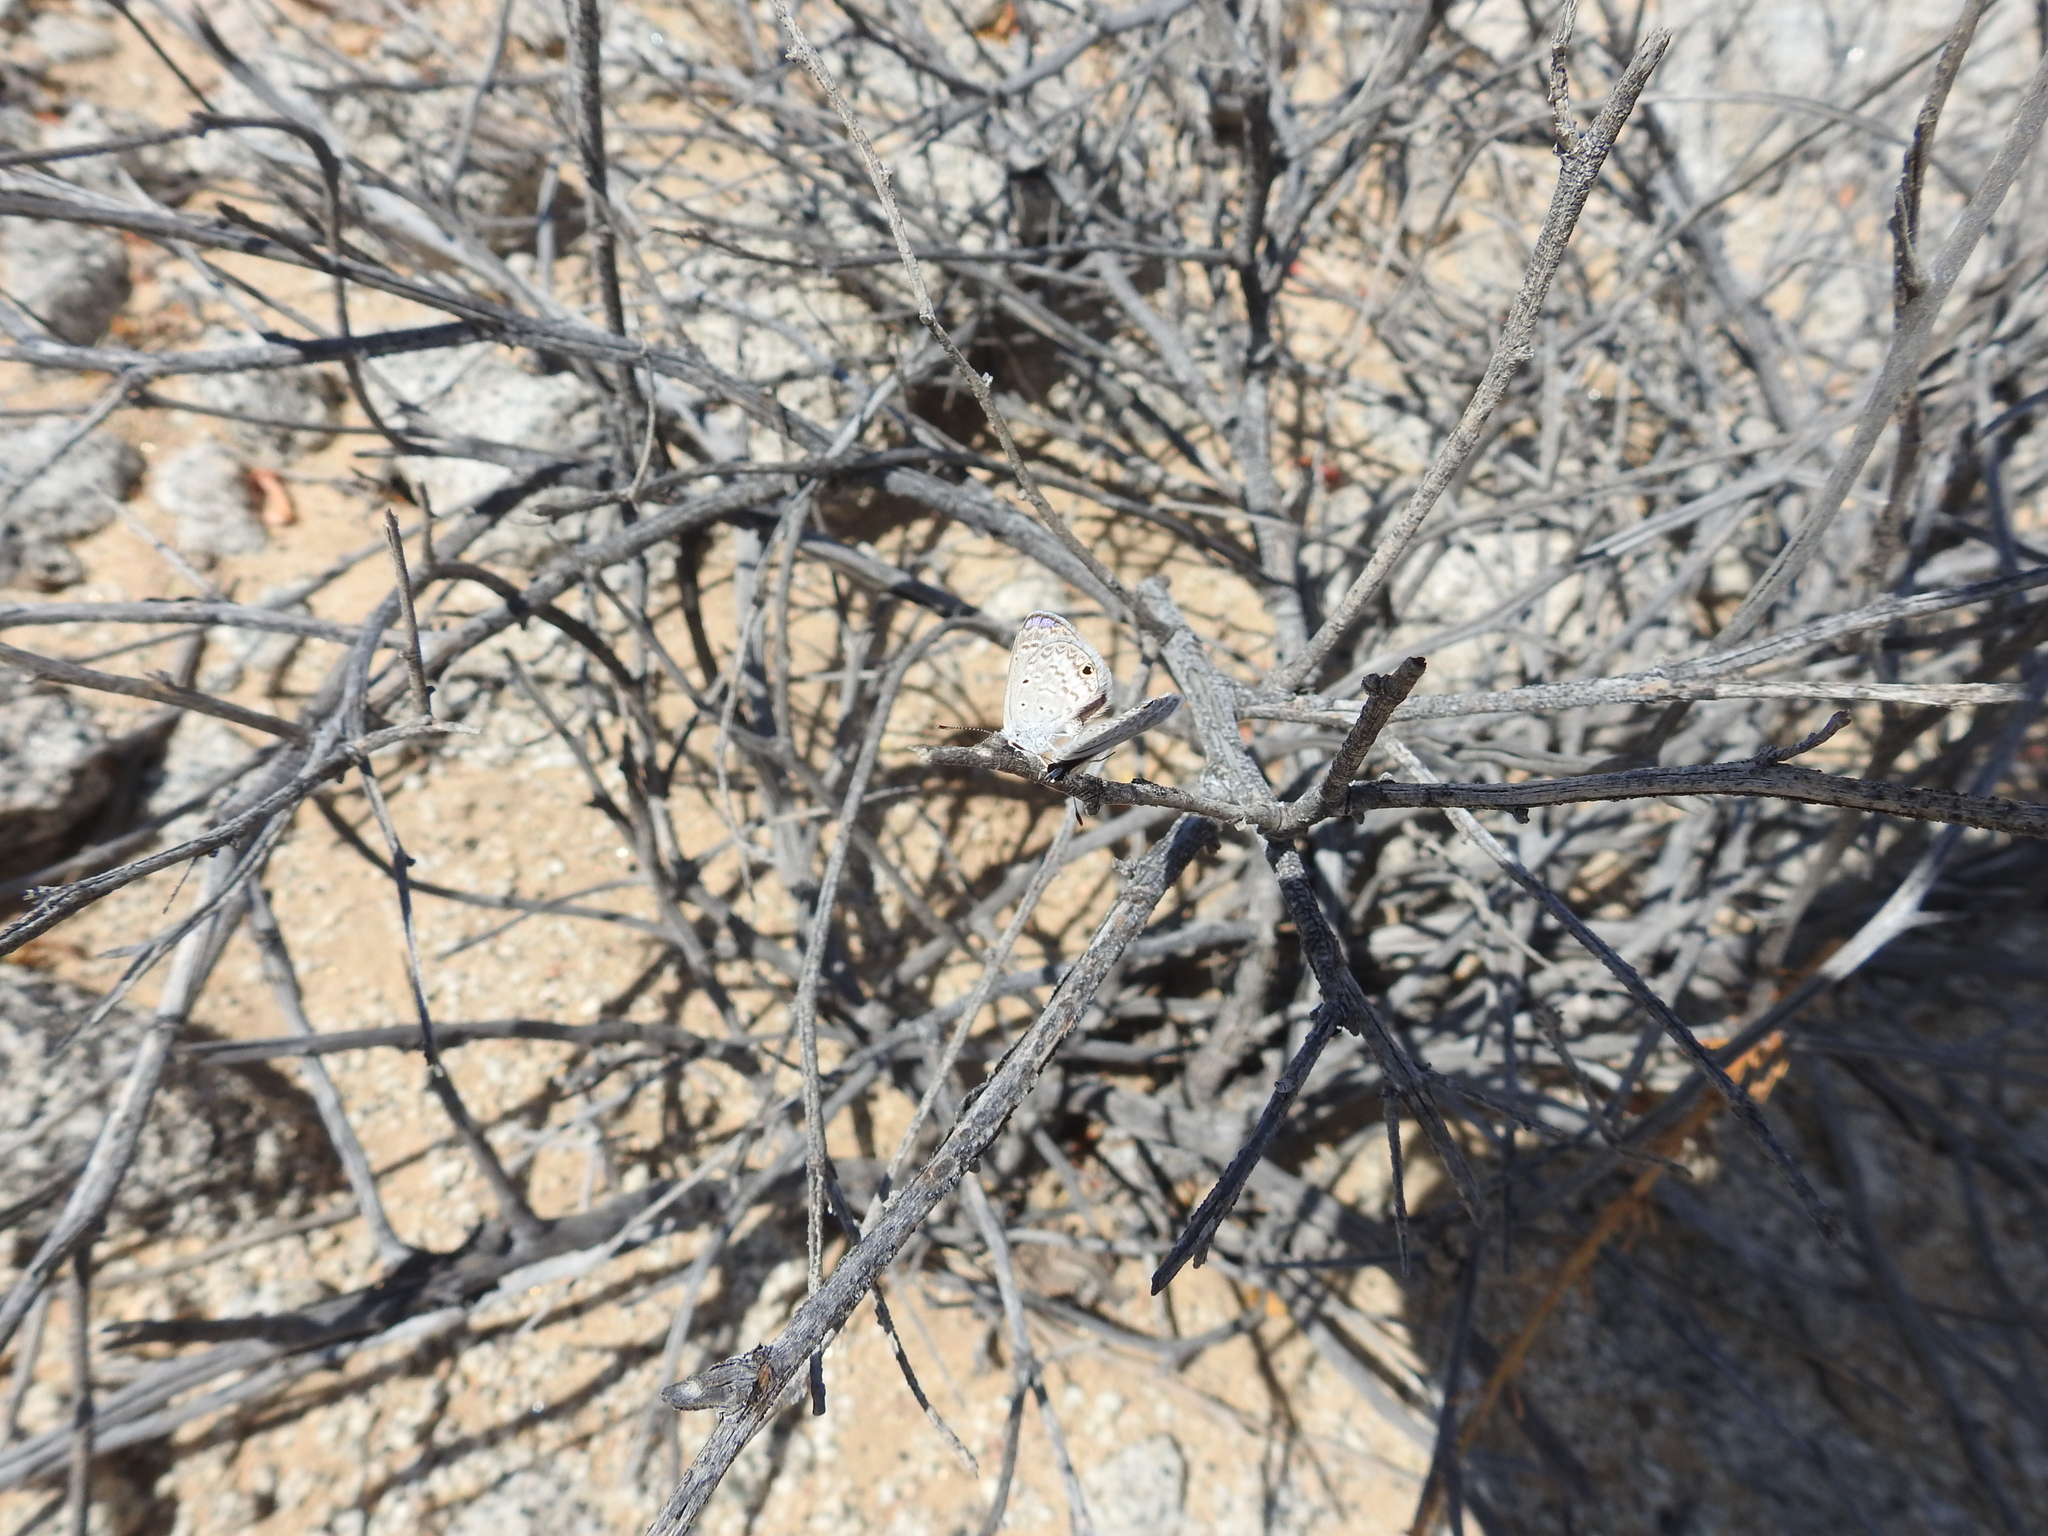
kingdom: Animalia
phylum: Arthropoda
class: Insecta
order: Lepidoptera
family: Lycaenidae
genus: Hemiargus
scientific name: Hemiargus ceraunus
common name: Ceraunus blue
